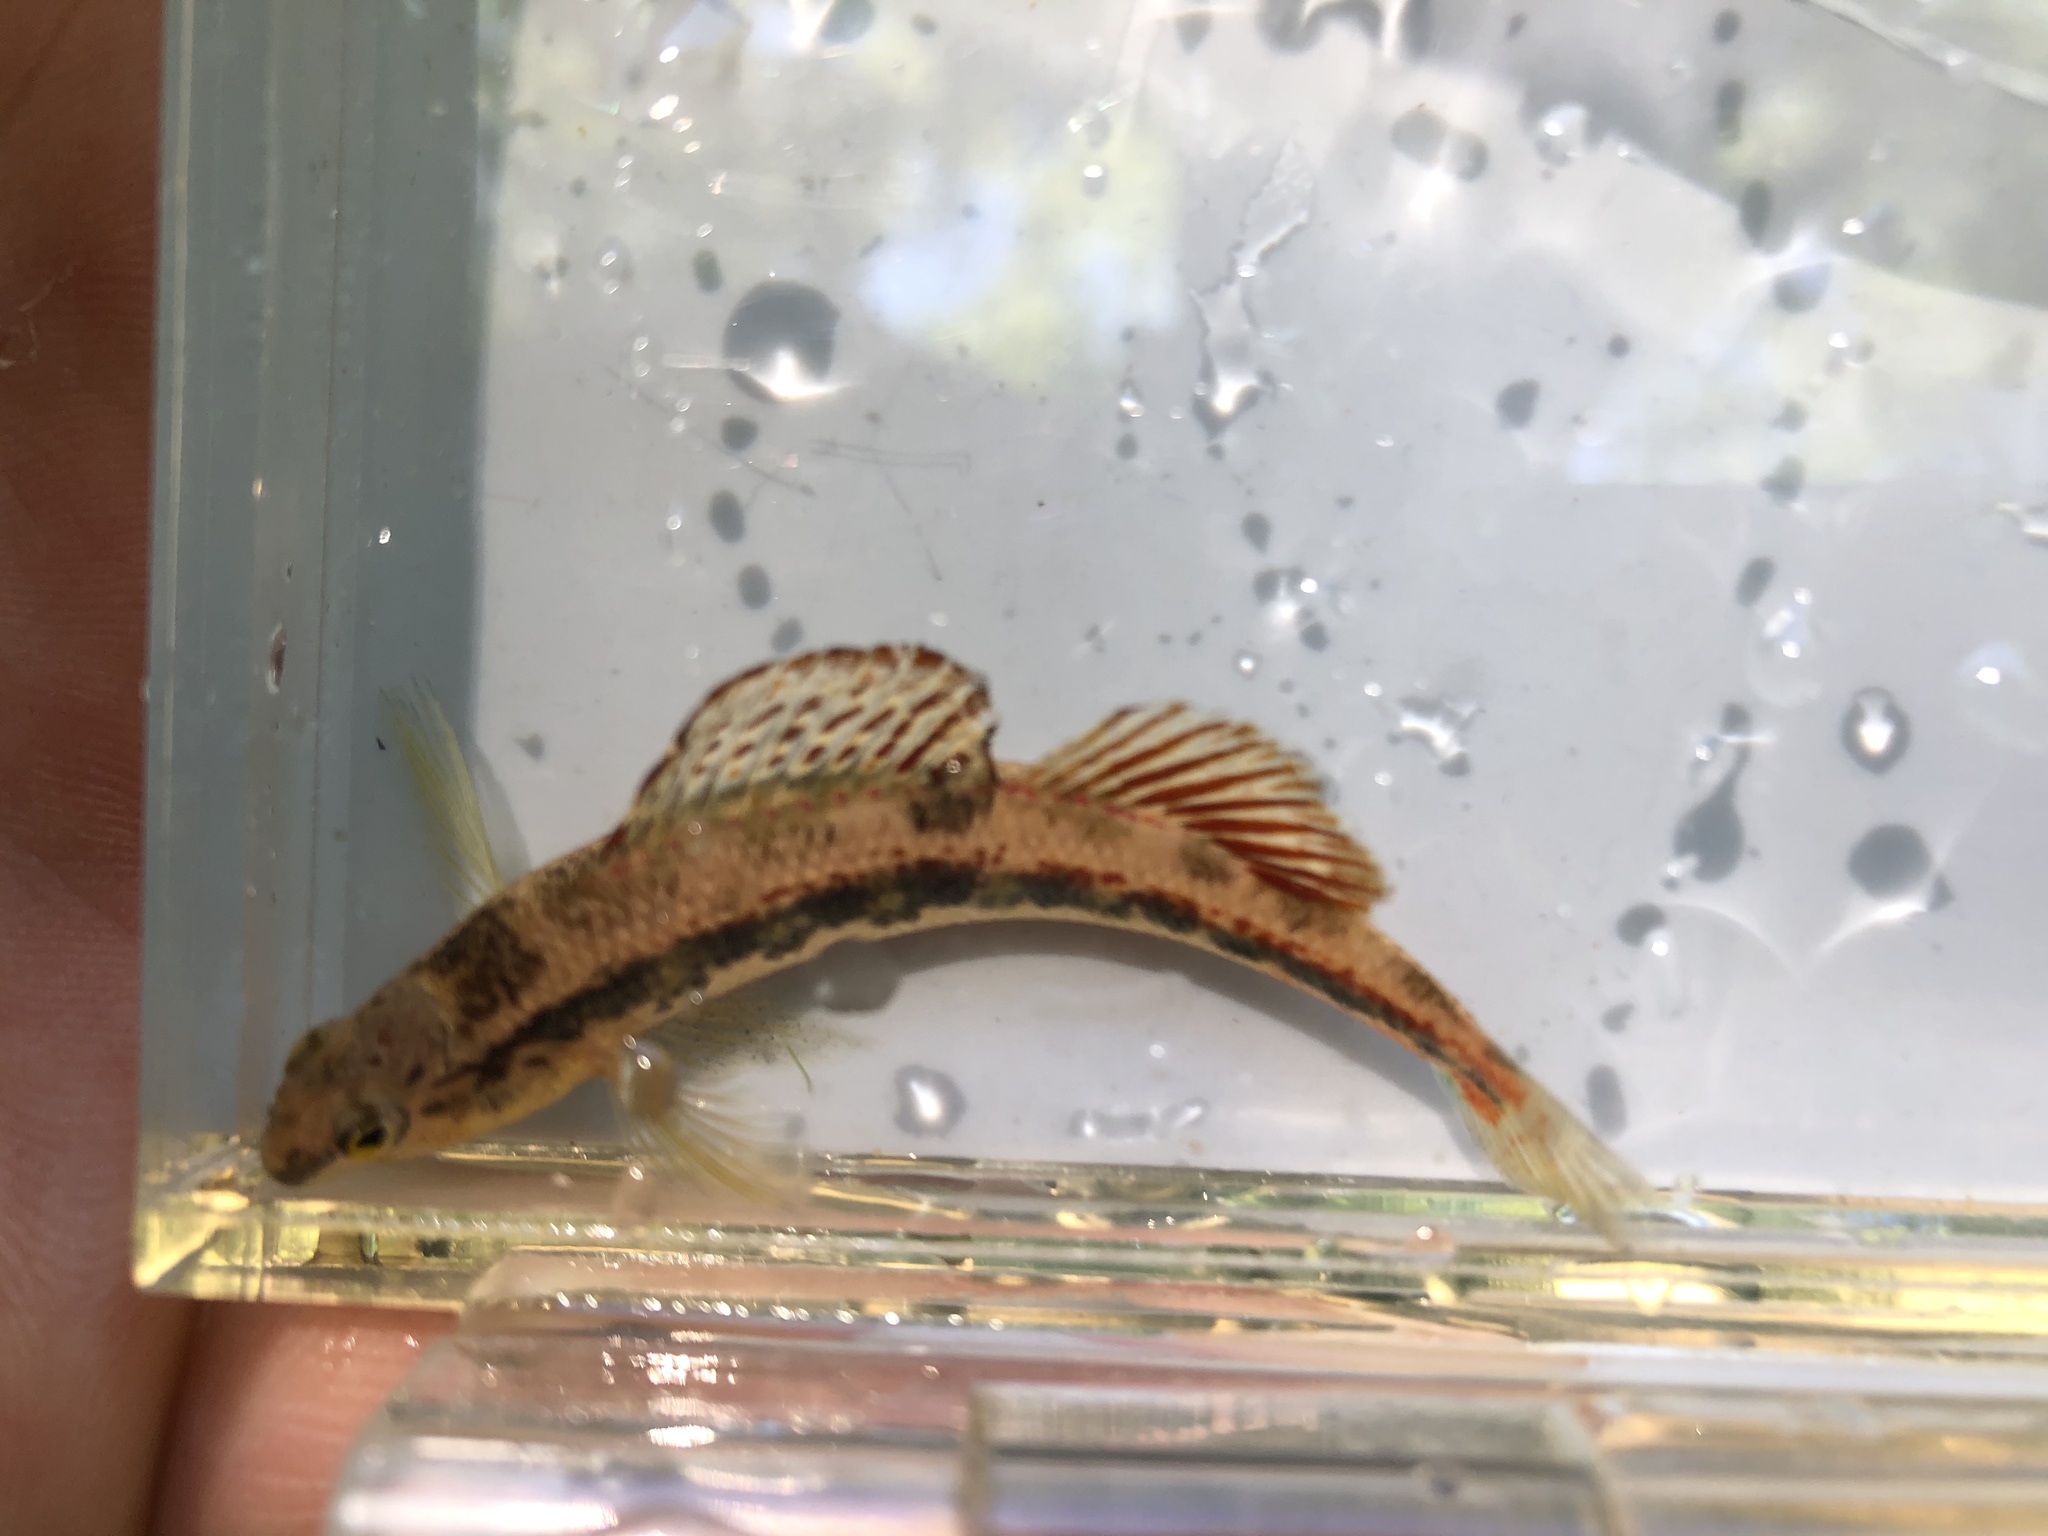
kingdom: Animalia
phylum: Chordata
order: Perciformes
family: Percidae
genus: Etheostoma
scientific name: Etheostoma duryi
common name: Blackside snubnose darter
